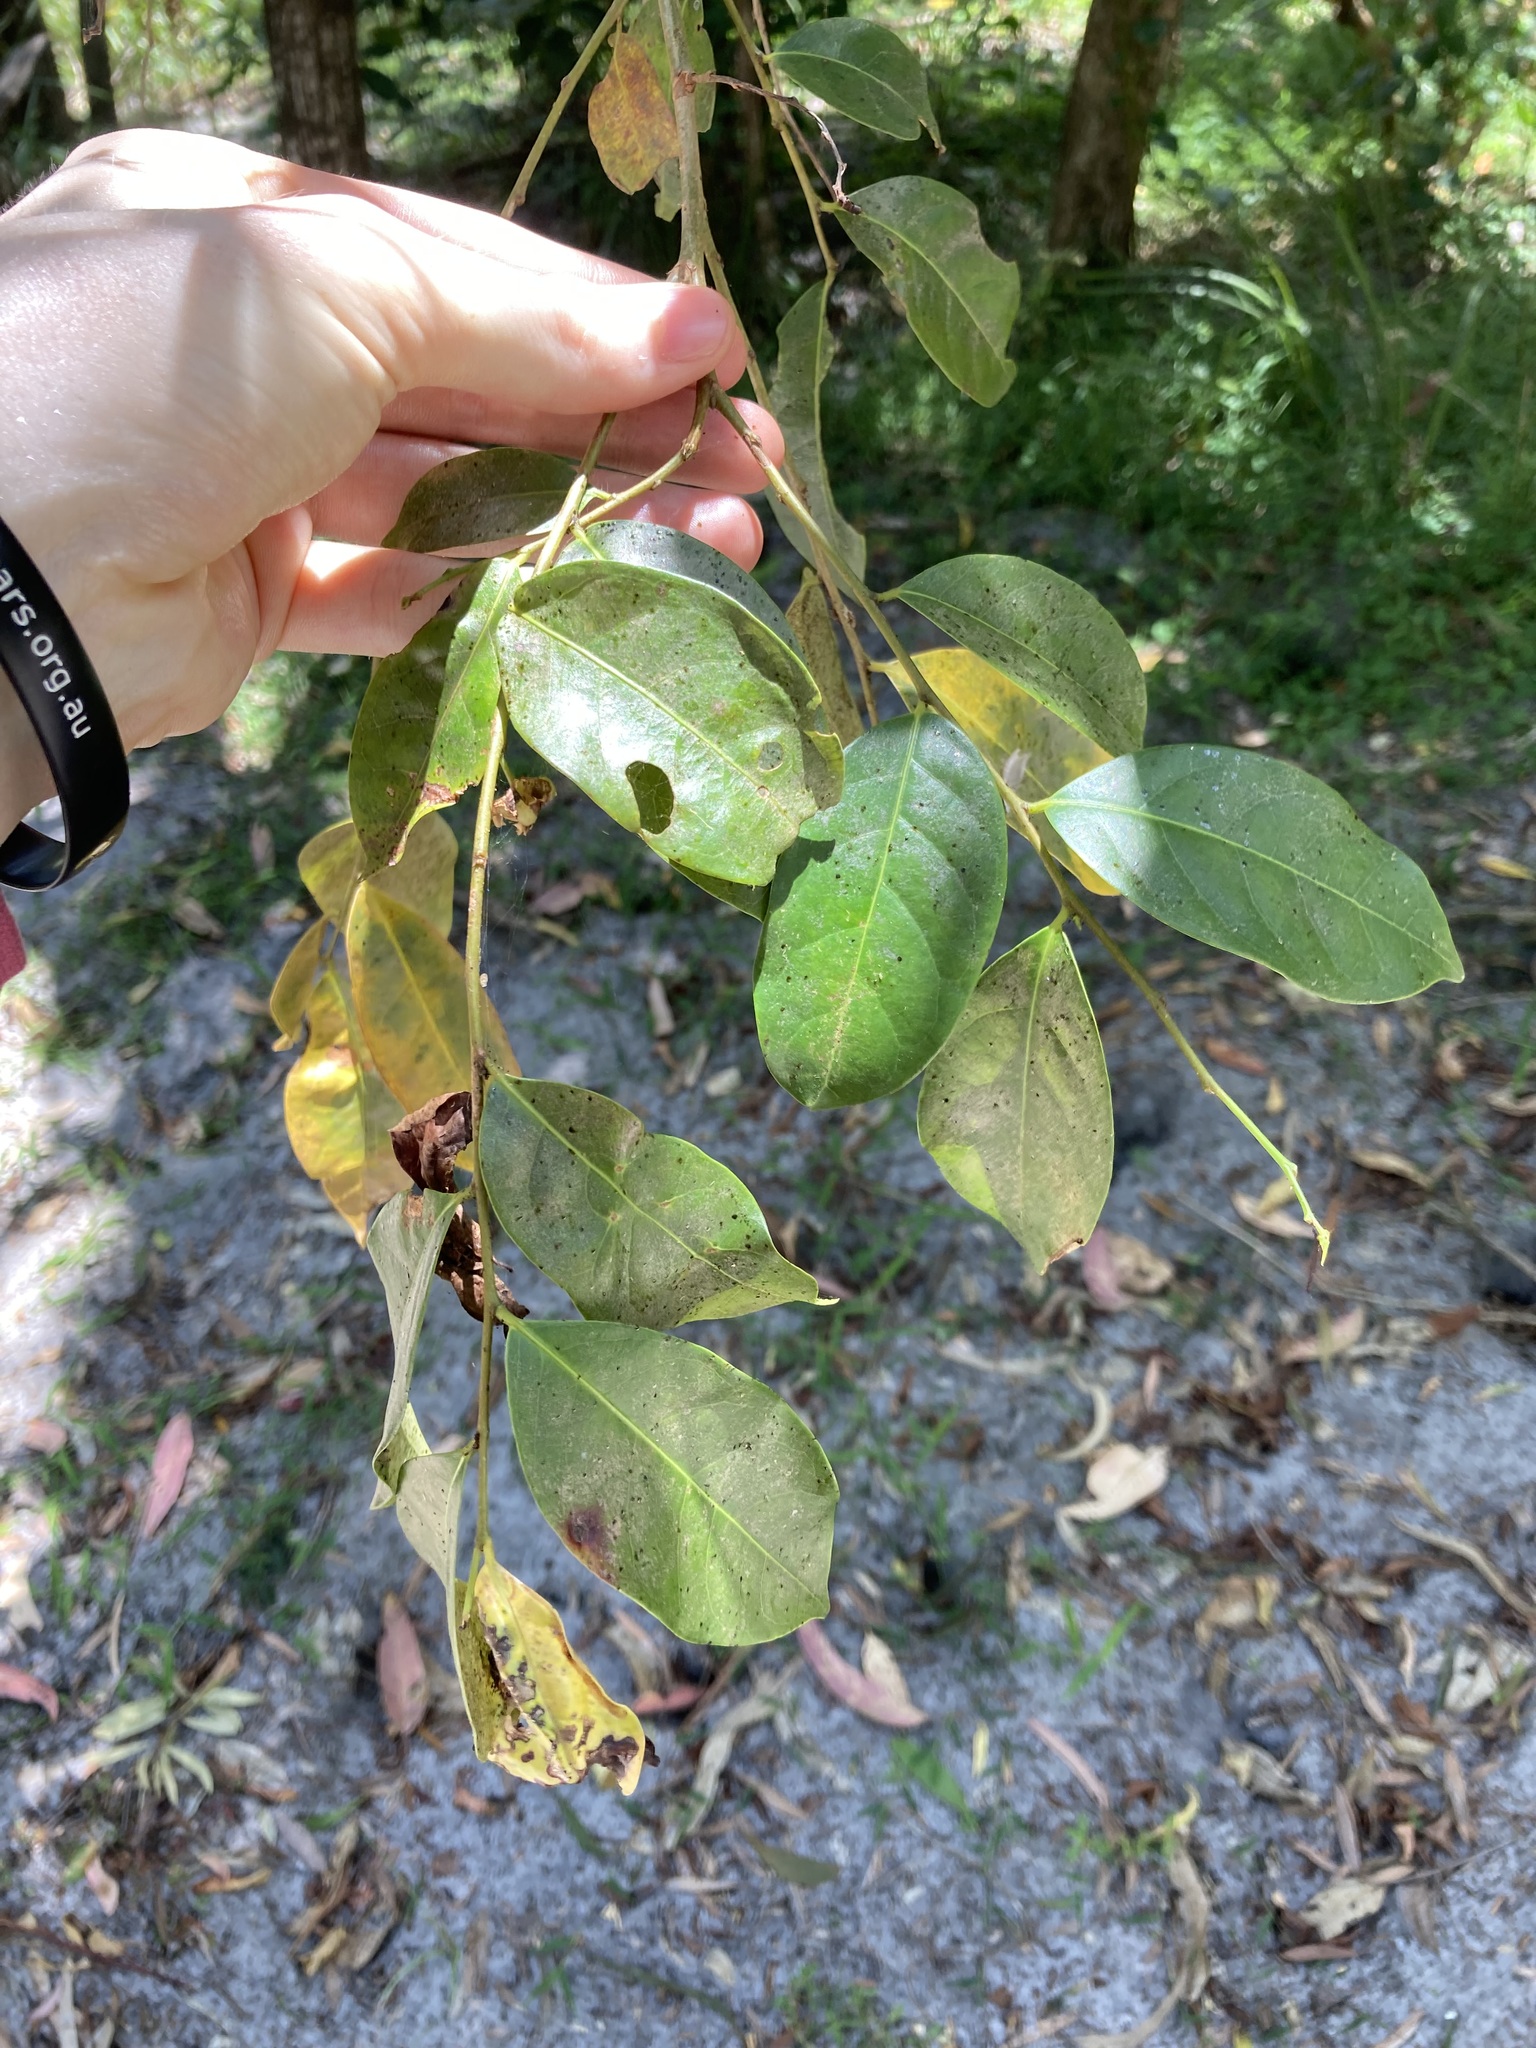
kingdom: Plantae
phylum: Tracheophyta
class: Magnoliopsida
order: Malpighiales
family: Phyllanthaceae
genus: Glochidion
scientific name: Glochidion ferdinandi
